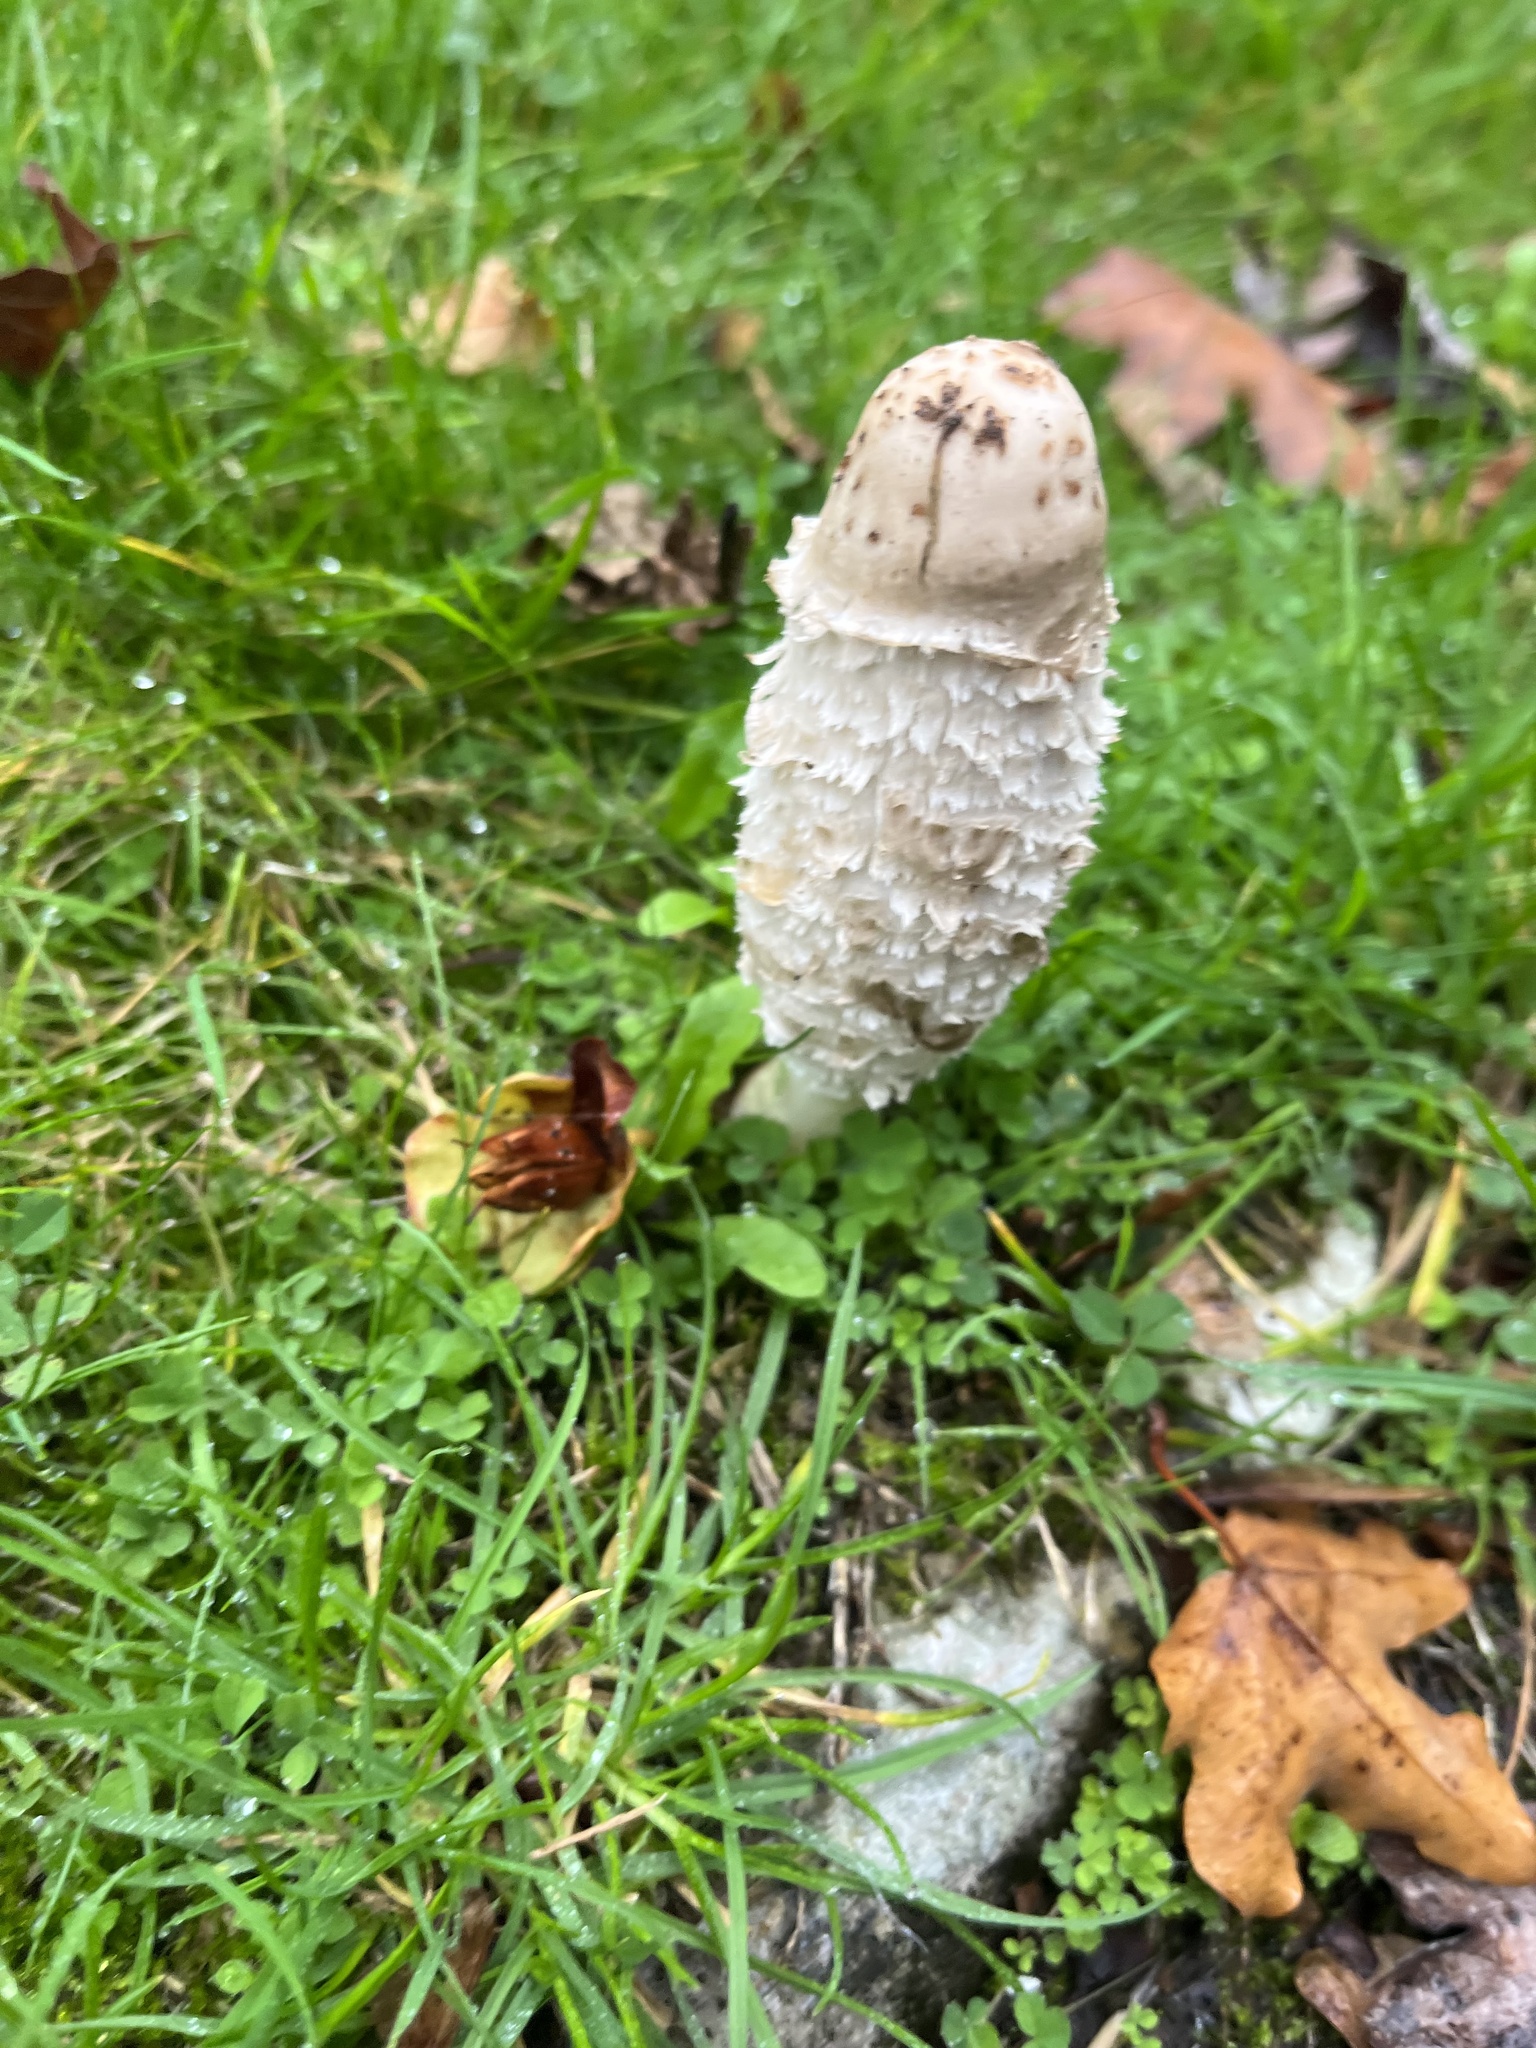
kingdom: Fungi
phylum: Basidiomycota
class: Agaricomycetes
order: Agaricales
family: Agaricaceae
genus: Coprinus
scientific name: Coprinus comatus
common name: Lawyer's wig
